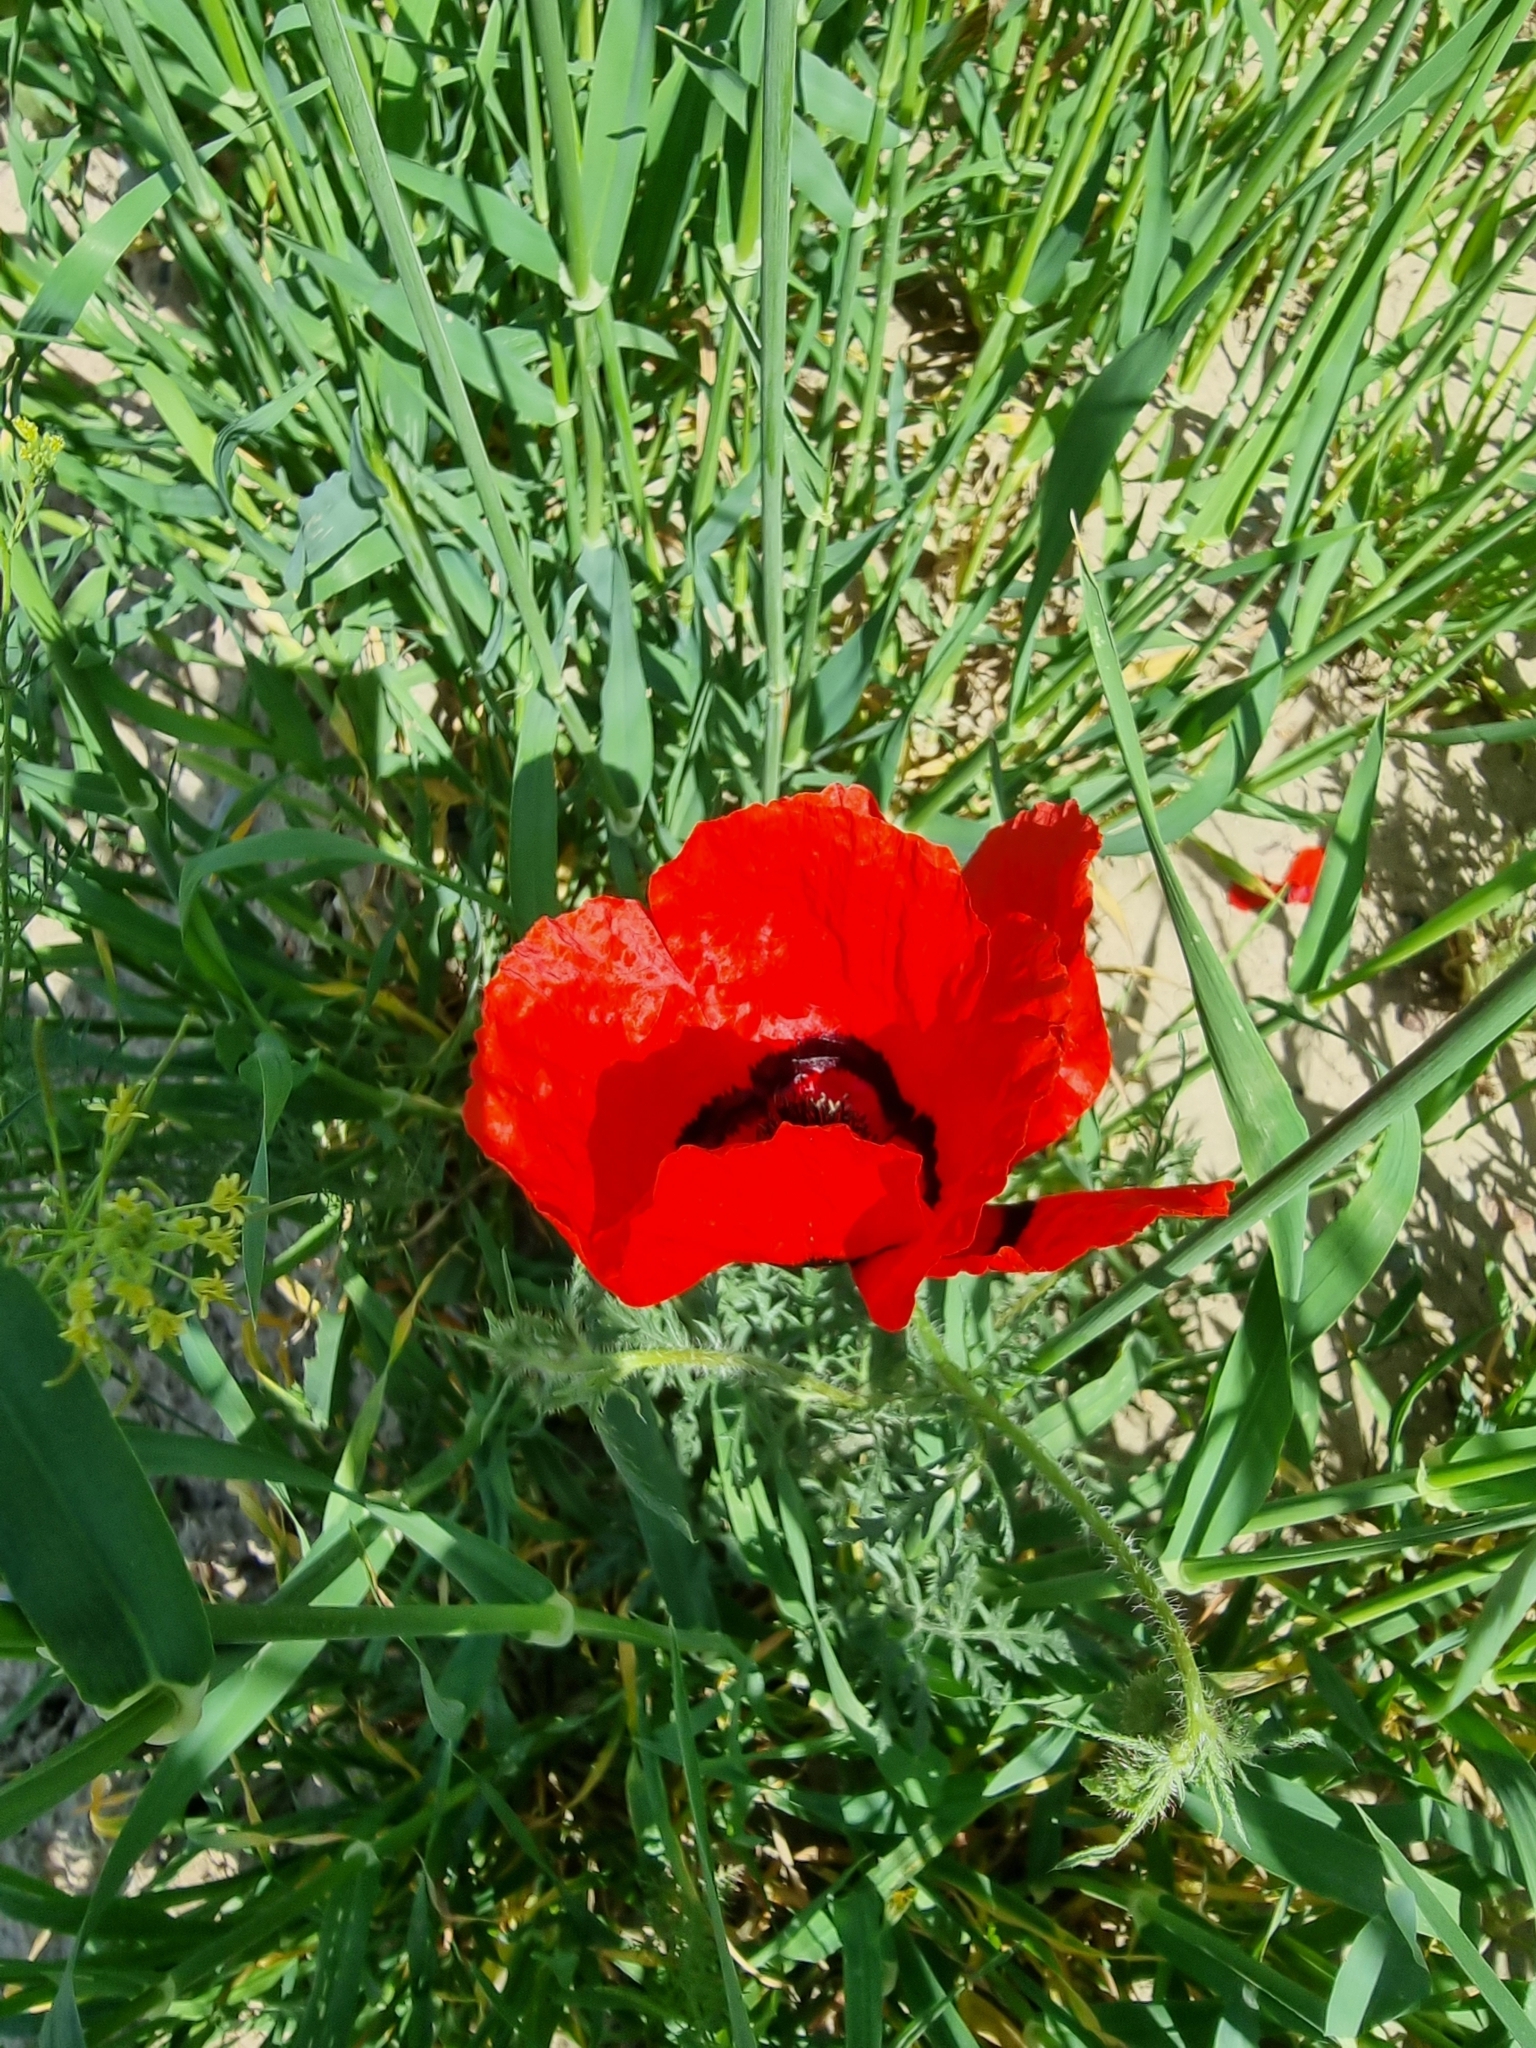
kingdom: Plantae
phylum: Tracheophyta
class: Magnoliopsida
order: Ranunculales
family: Papaveraceae
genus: Roemeria
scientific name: Roemeria pavonina
